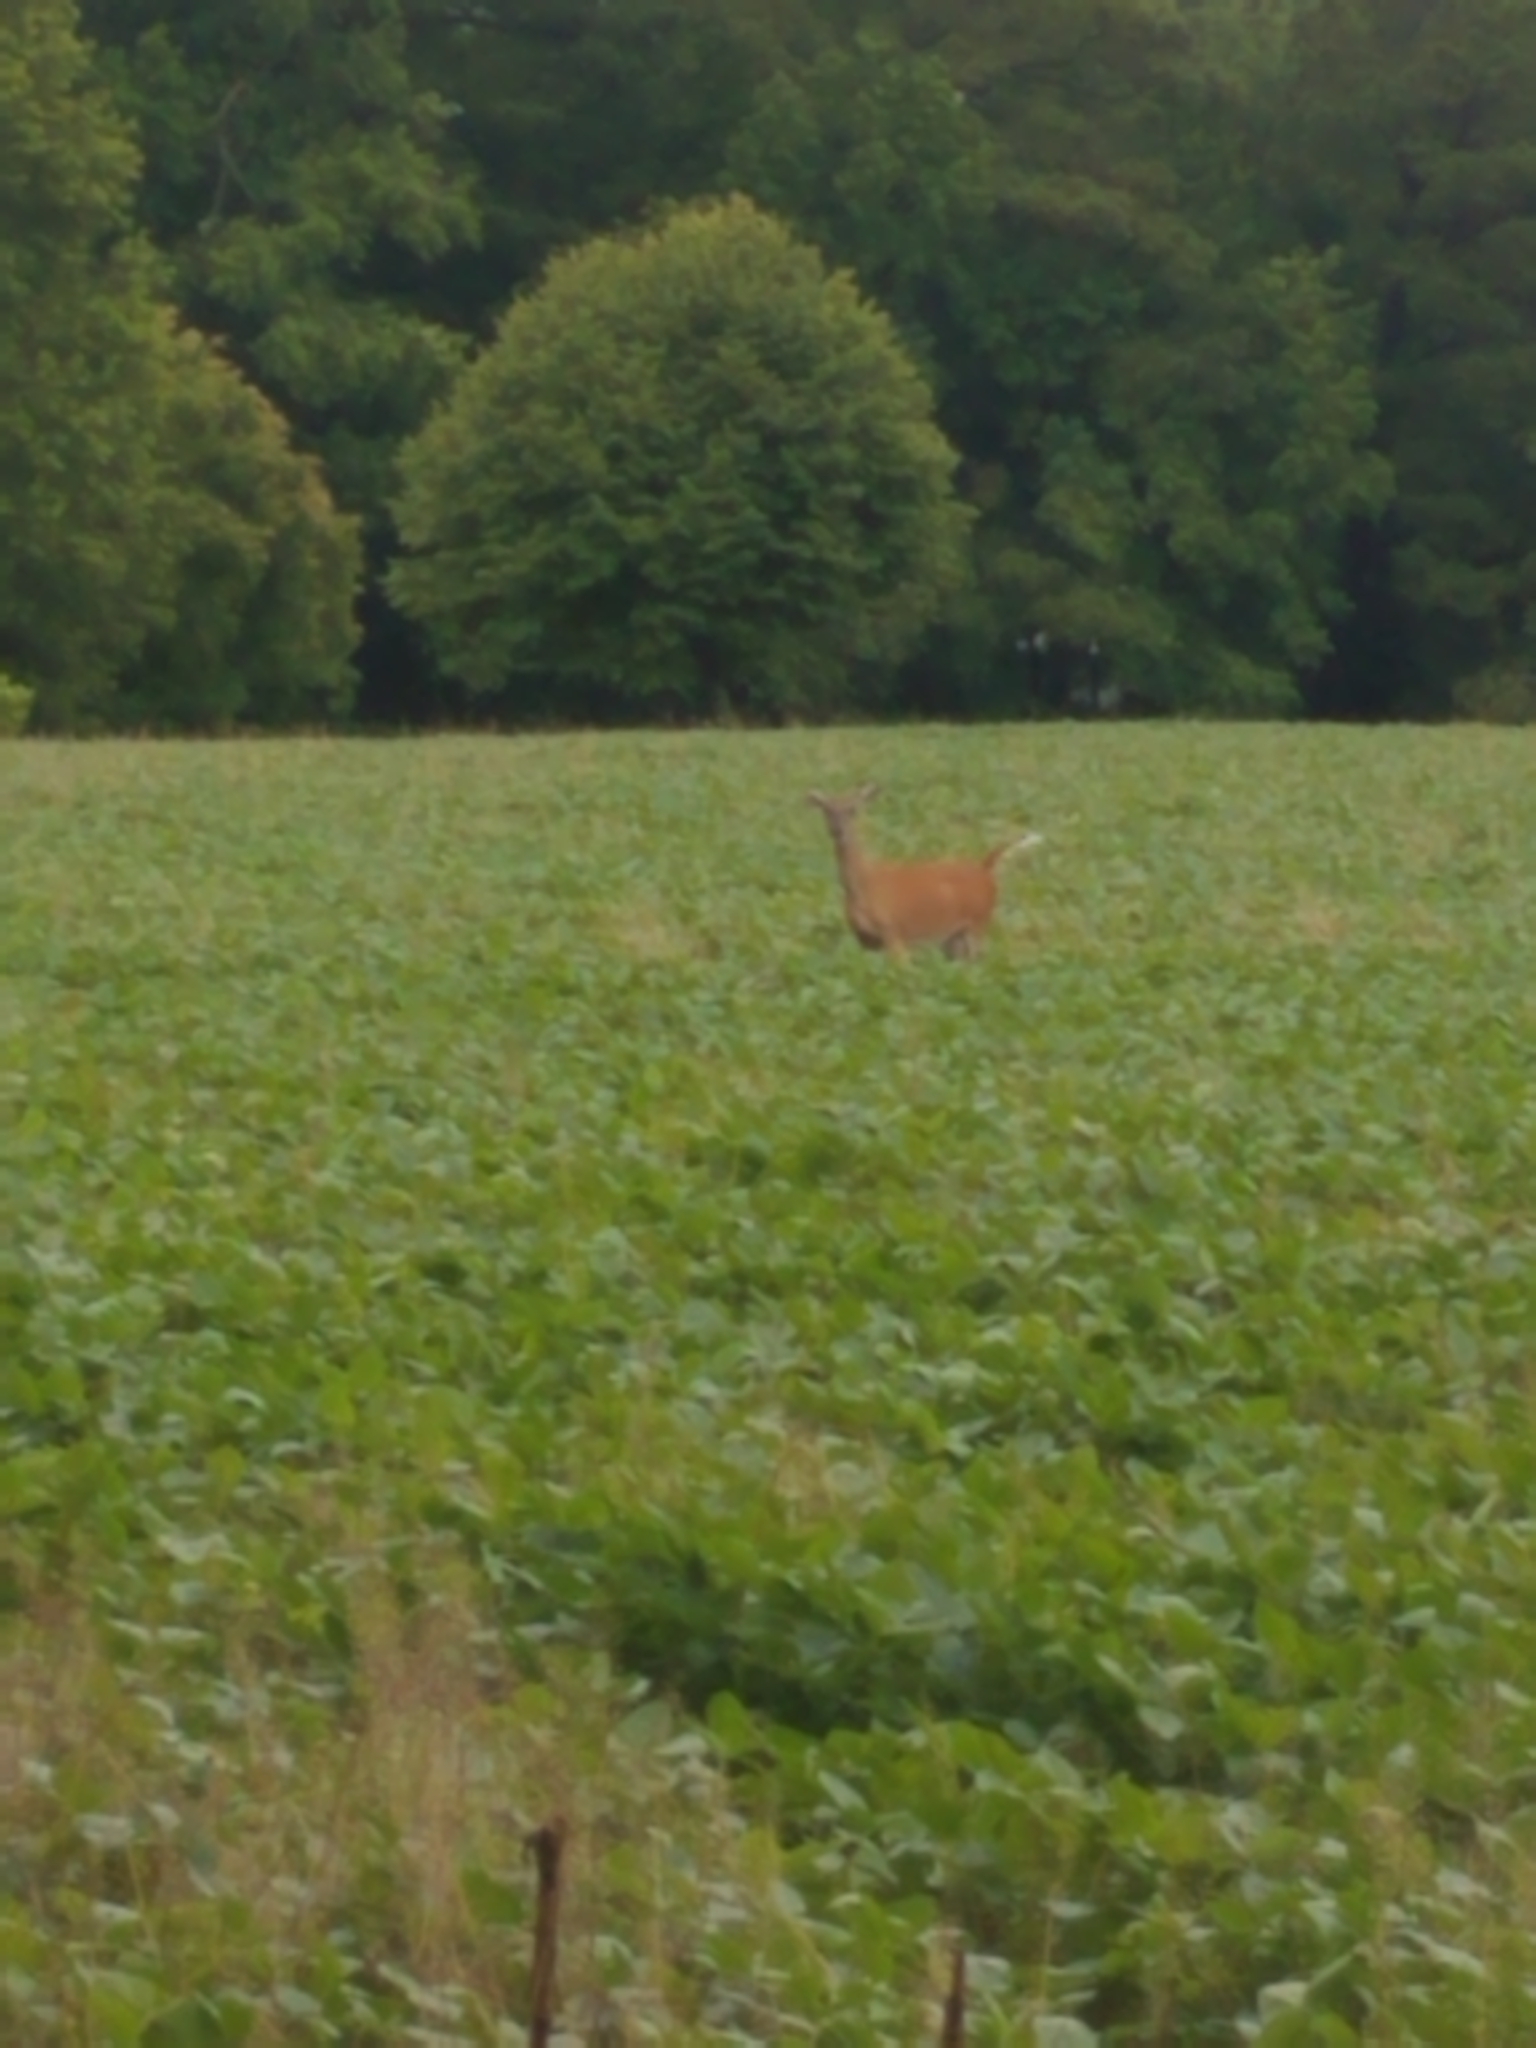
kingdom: Animalia
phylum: Chordata
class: Mammalia
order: Artiodactyla
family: Cervidae
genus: Odocoileus
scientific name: Odocoileus virginianus
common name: White-tailed deer
